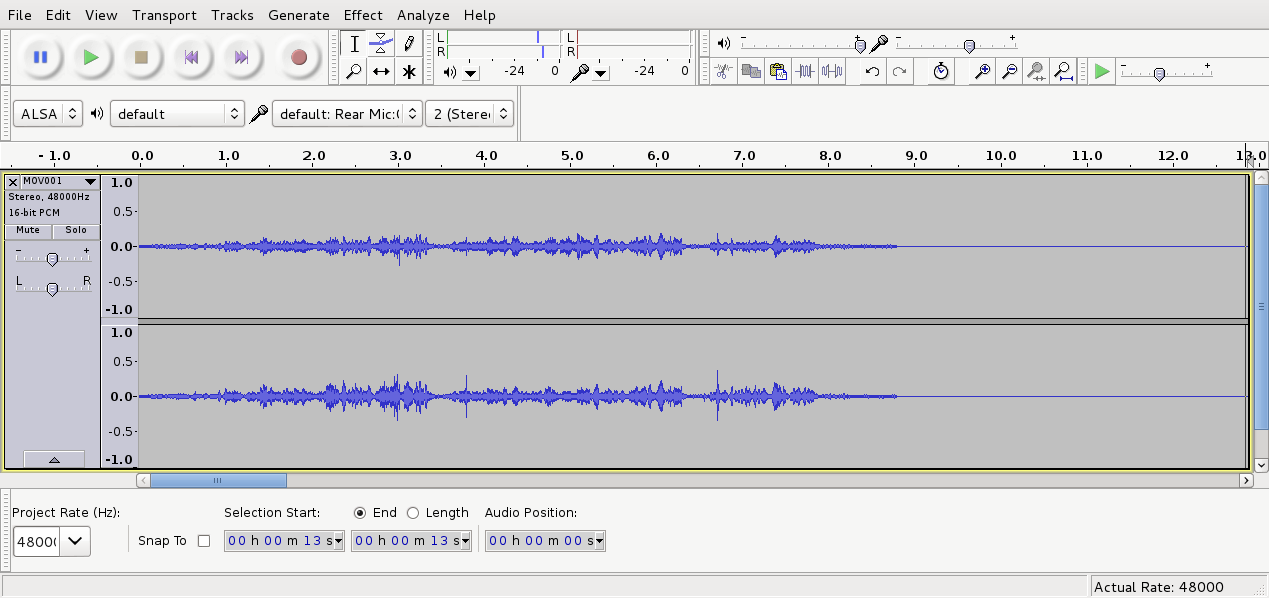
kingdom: Animalia
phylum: Chordata
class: Aves
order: Passeriformes
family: Acanthizidae
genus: Gerygone
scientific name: Gerygone igata
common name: Grey gerygone
